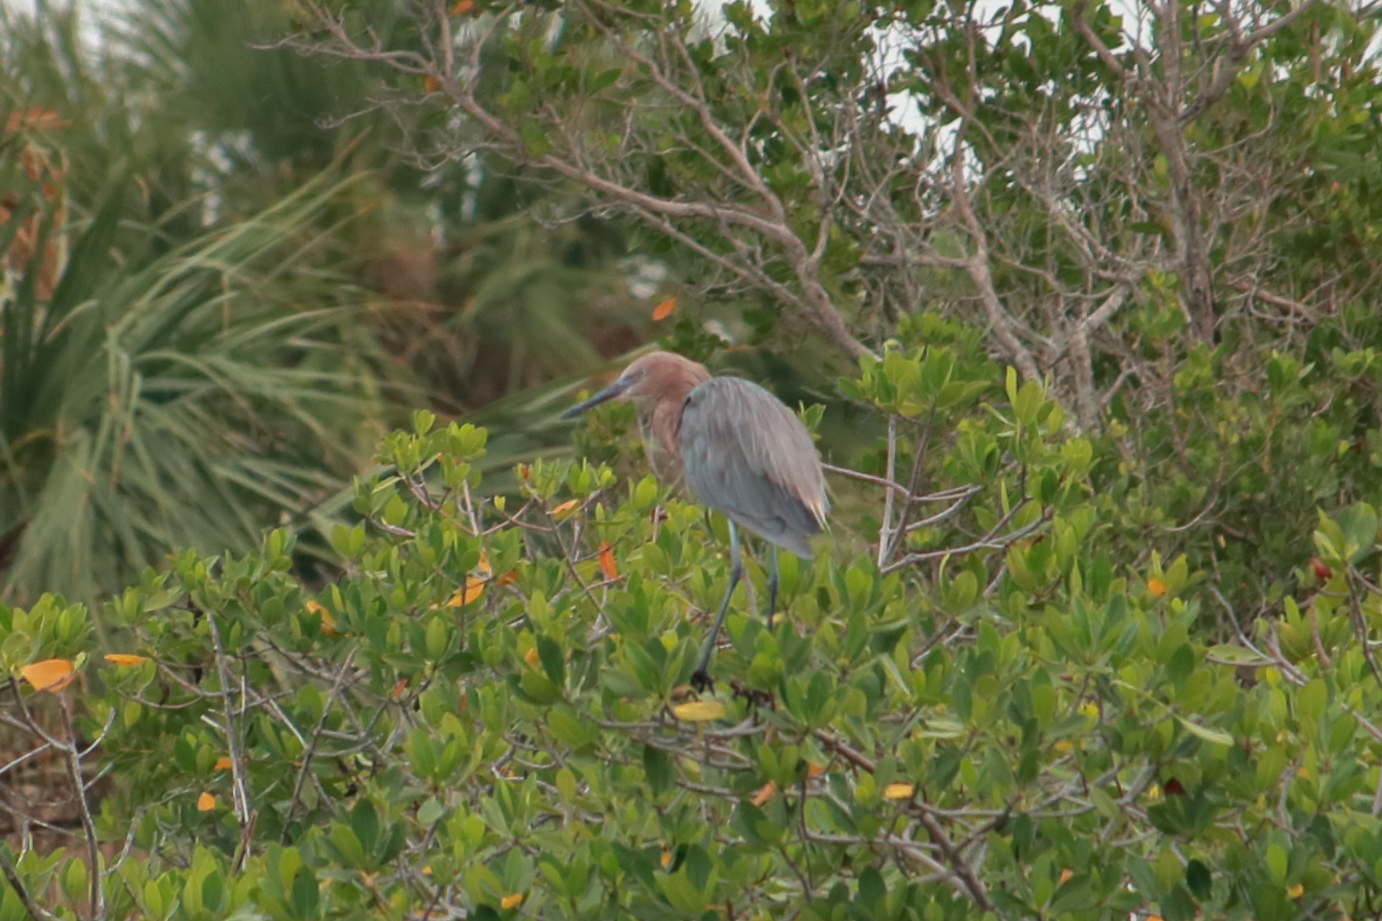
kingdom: Animalia
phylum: Chordata
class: Aves
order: Pelecaniformes
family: Ardeidae
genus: Egretta
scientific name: Egretta rufescens
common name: Reddish egret
